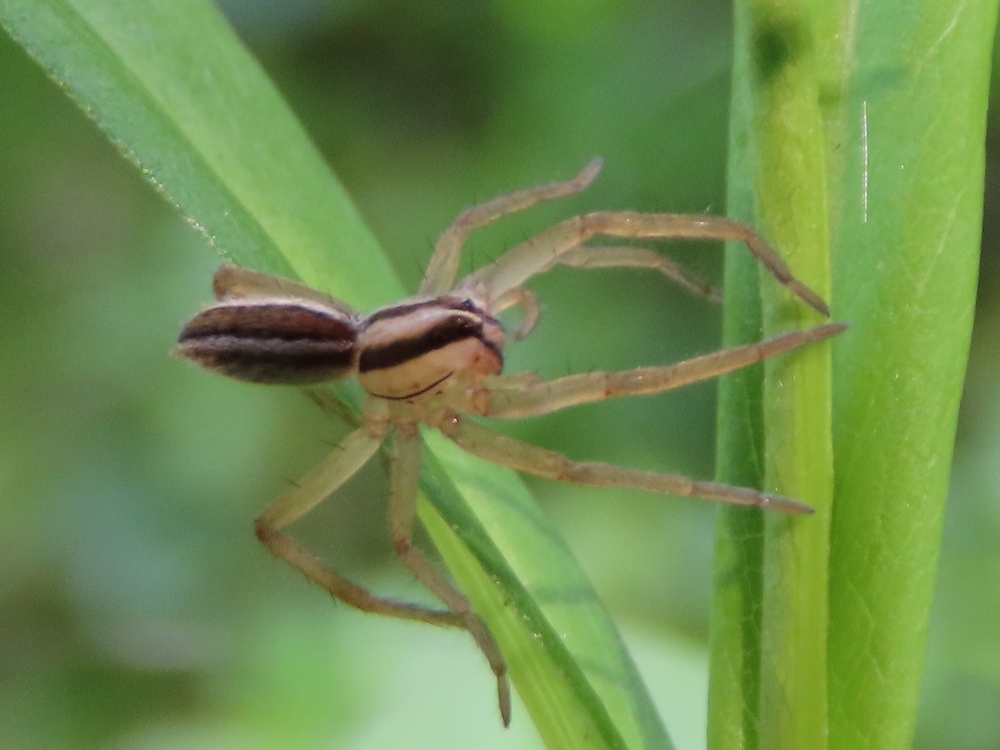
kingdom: Animalia
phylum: Arthropoda
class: Arachnida
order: Araneae
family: Lycosidae
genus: Rabidosa
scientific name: Rabidosa punctulata
